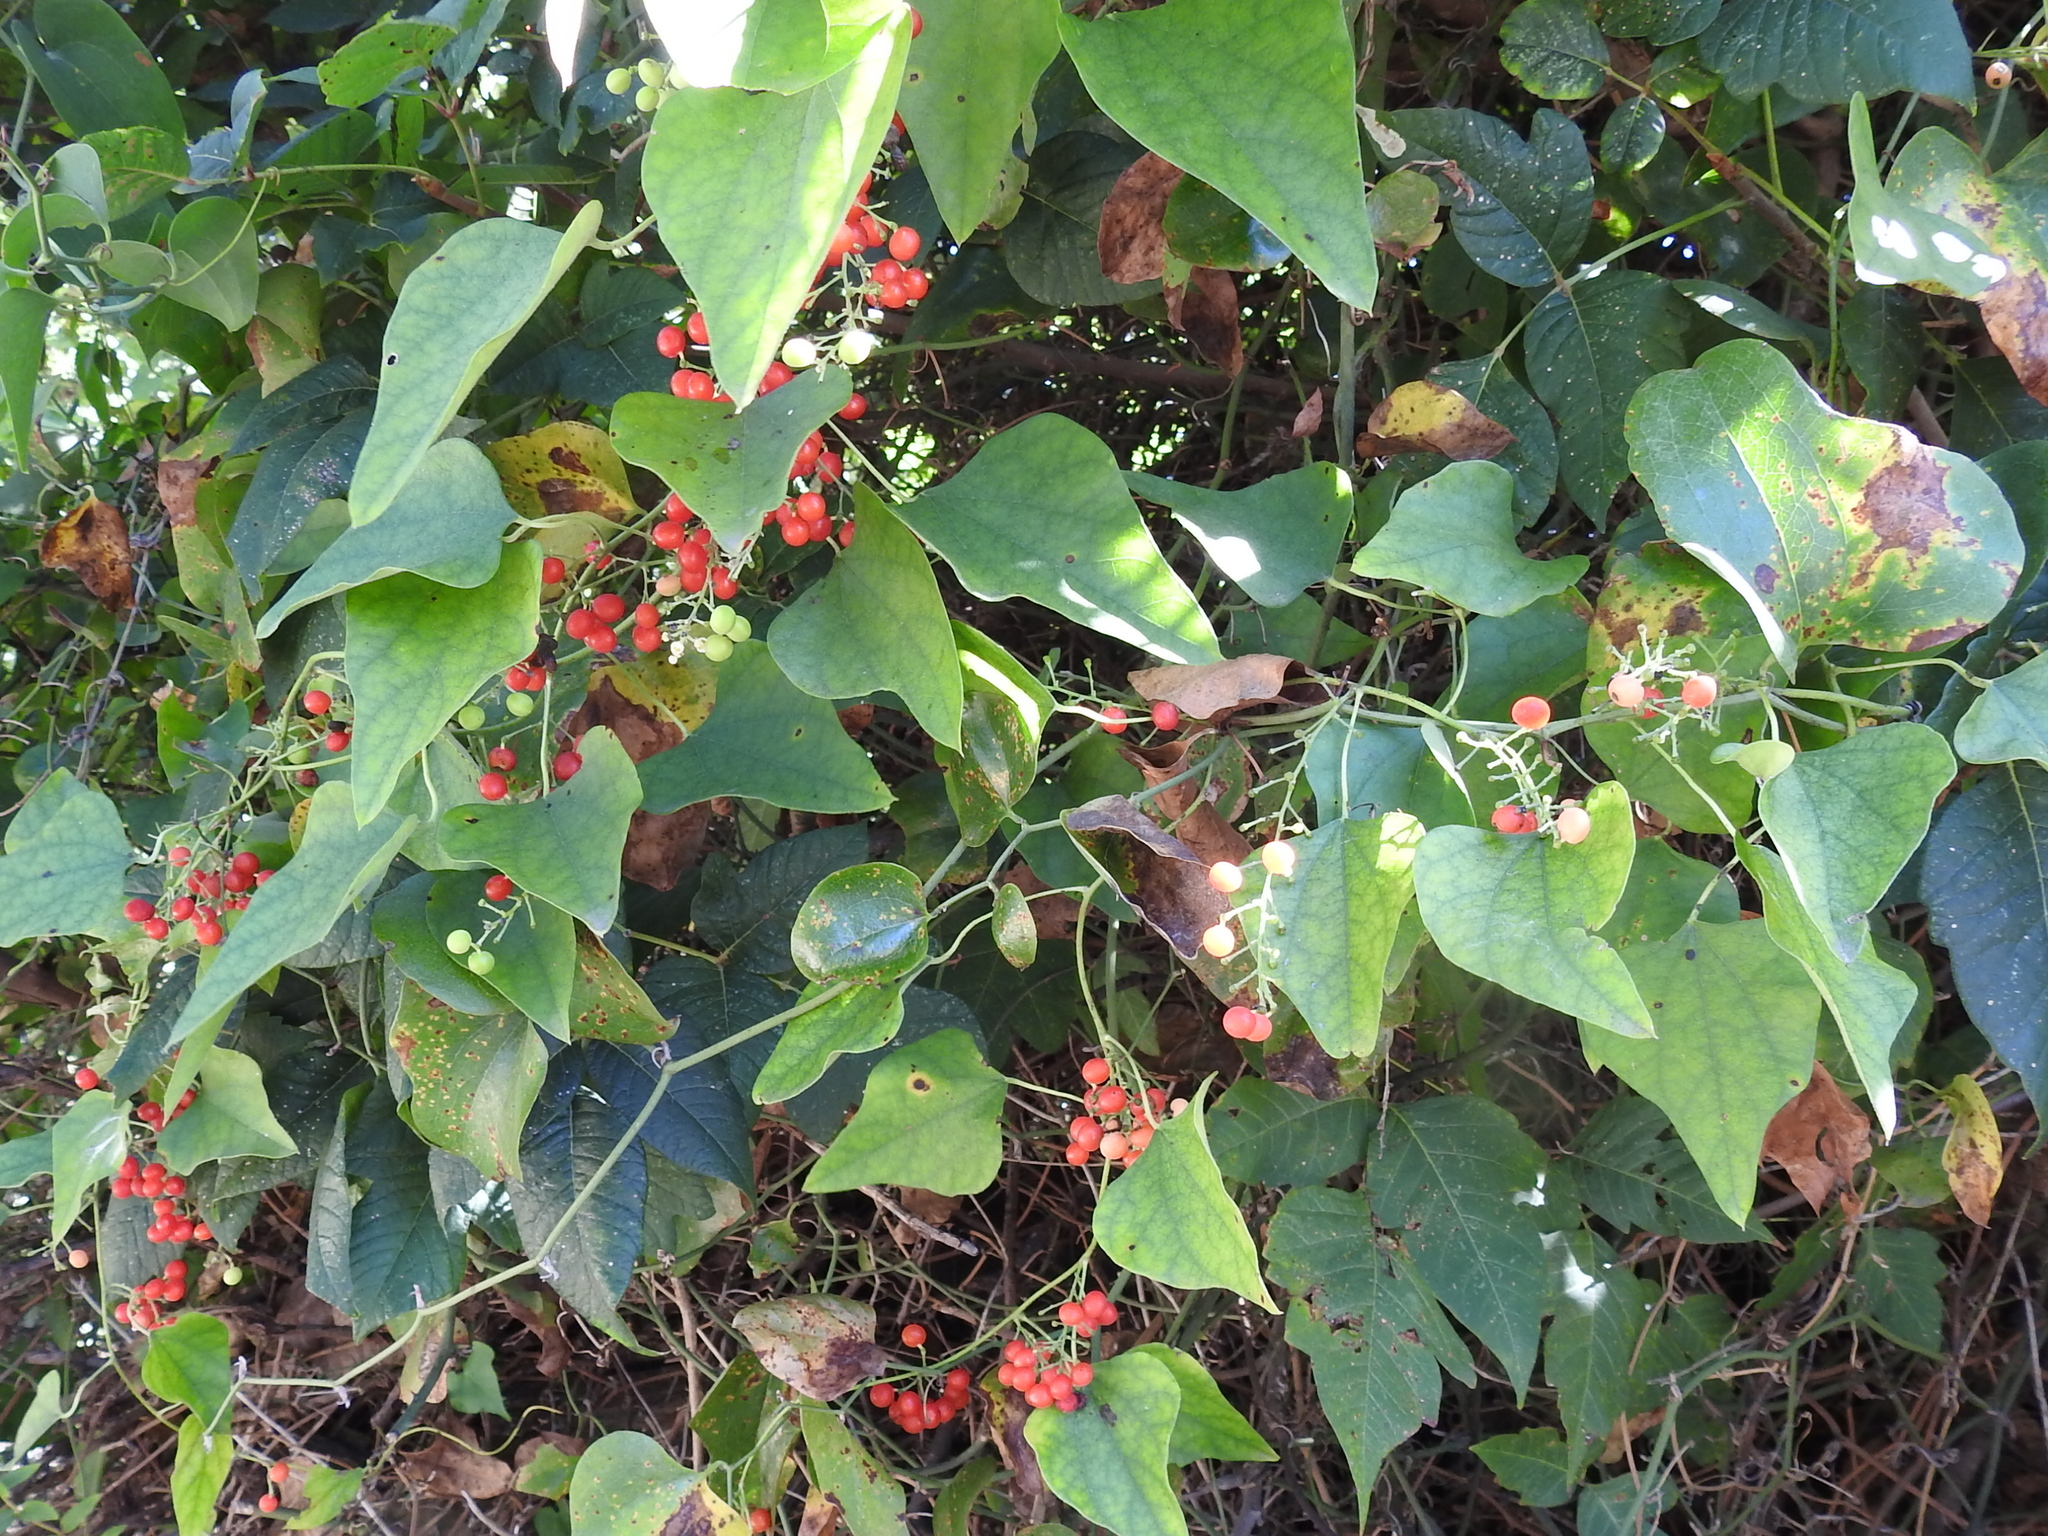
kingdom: Plantae
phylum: Tracheophyta
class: Magnoliopsida
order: Ranunculales
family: Menispermaceae
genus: Cocculus
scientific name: Cocculus carolinus
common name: Carolina moonseed
